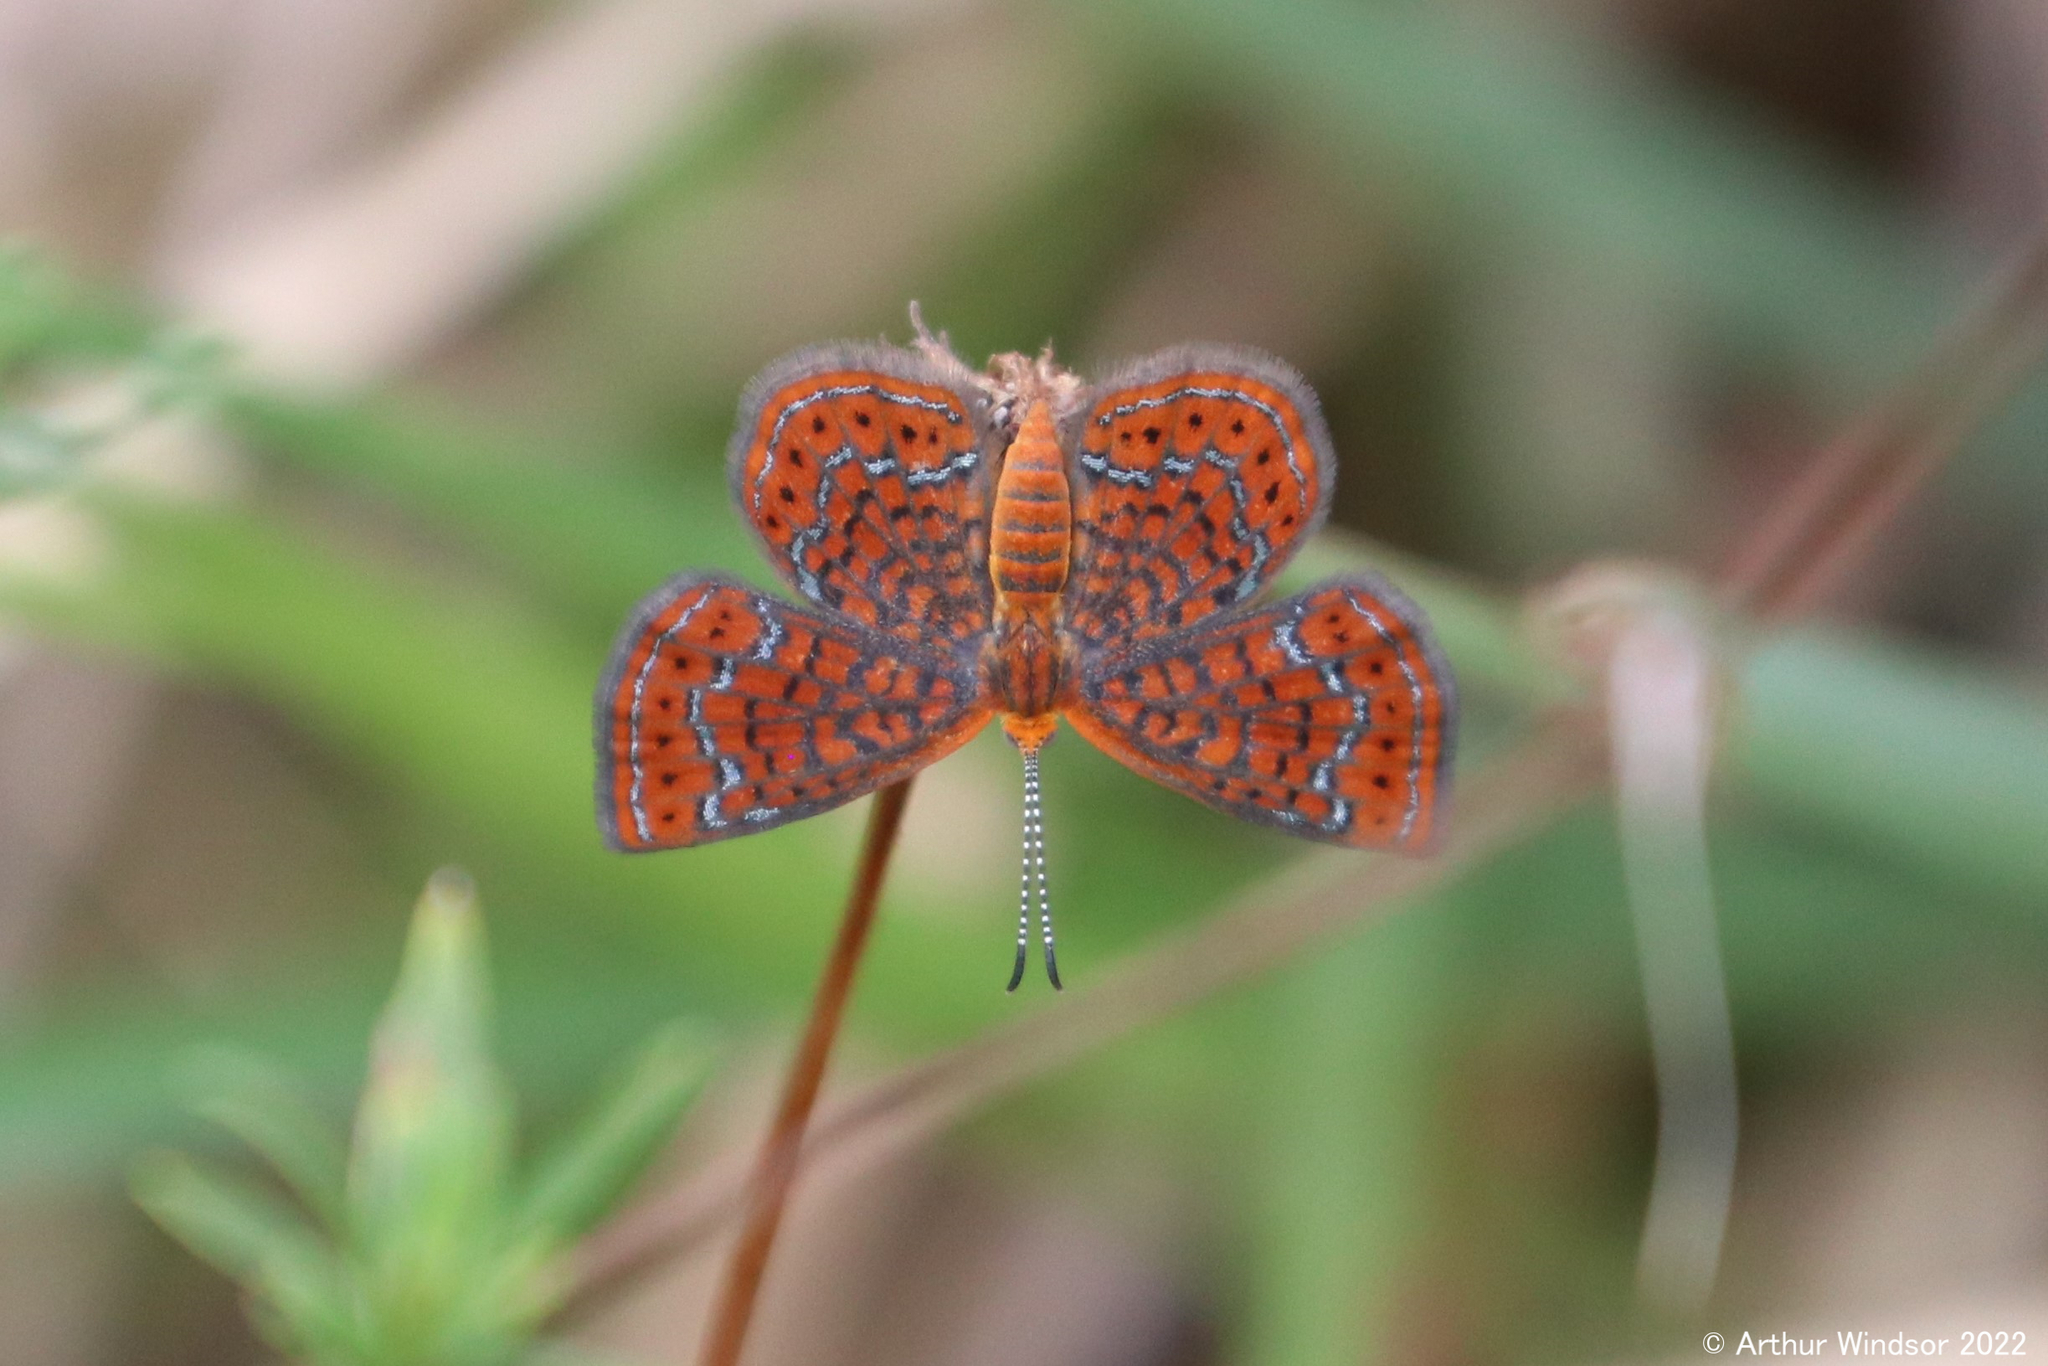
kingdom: Animalia
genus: Calephelis
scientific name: Calephelis virginiensis
